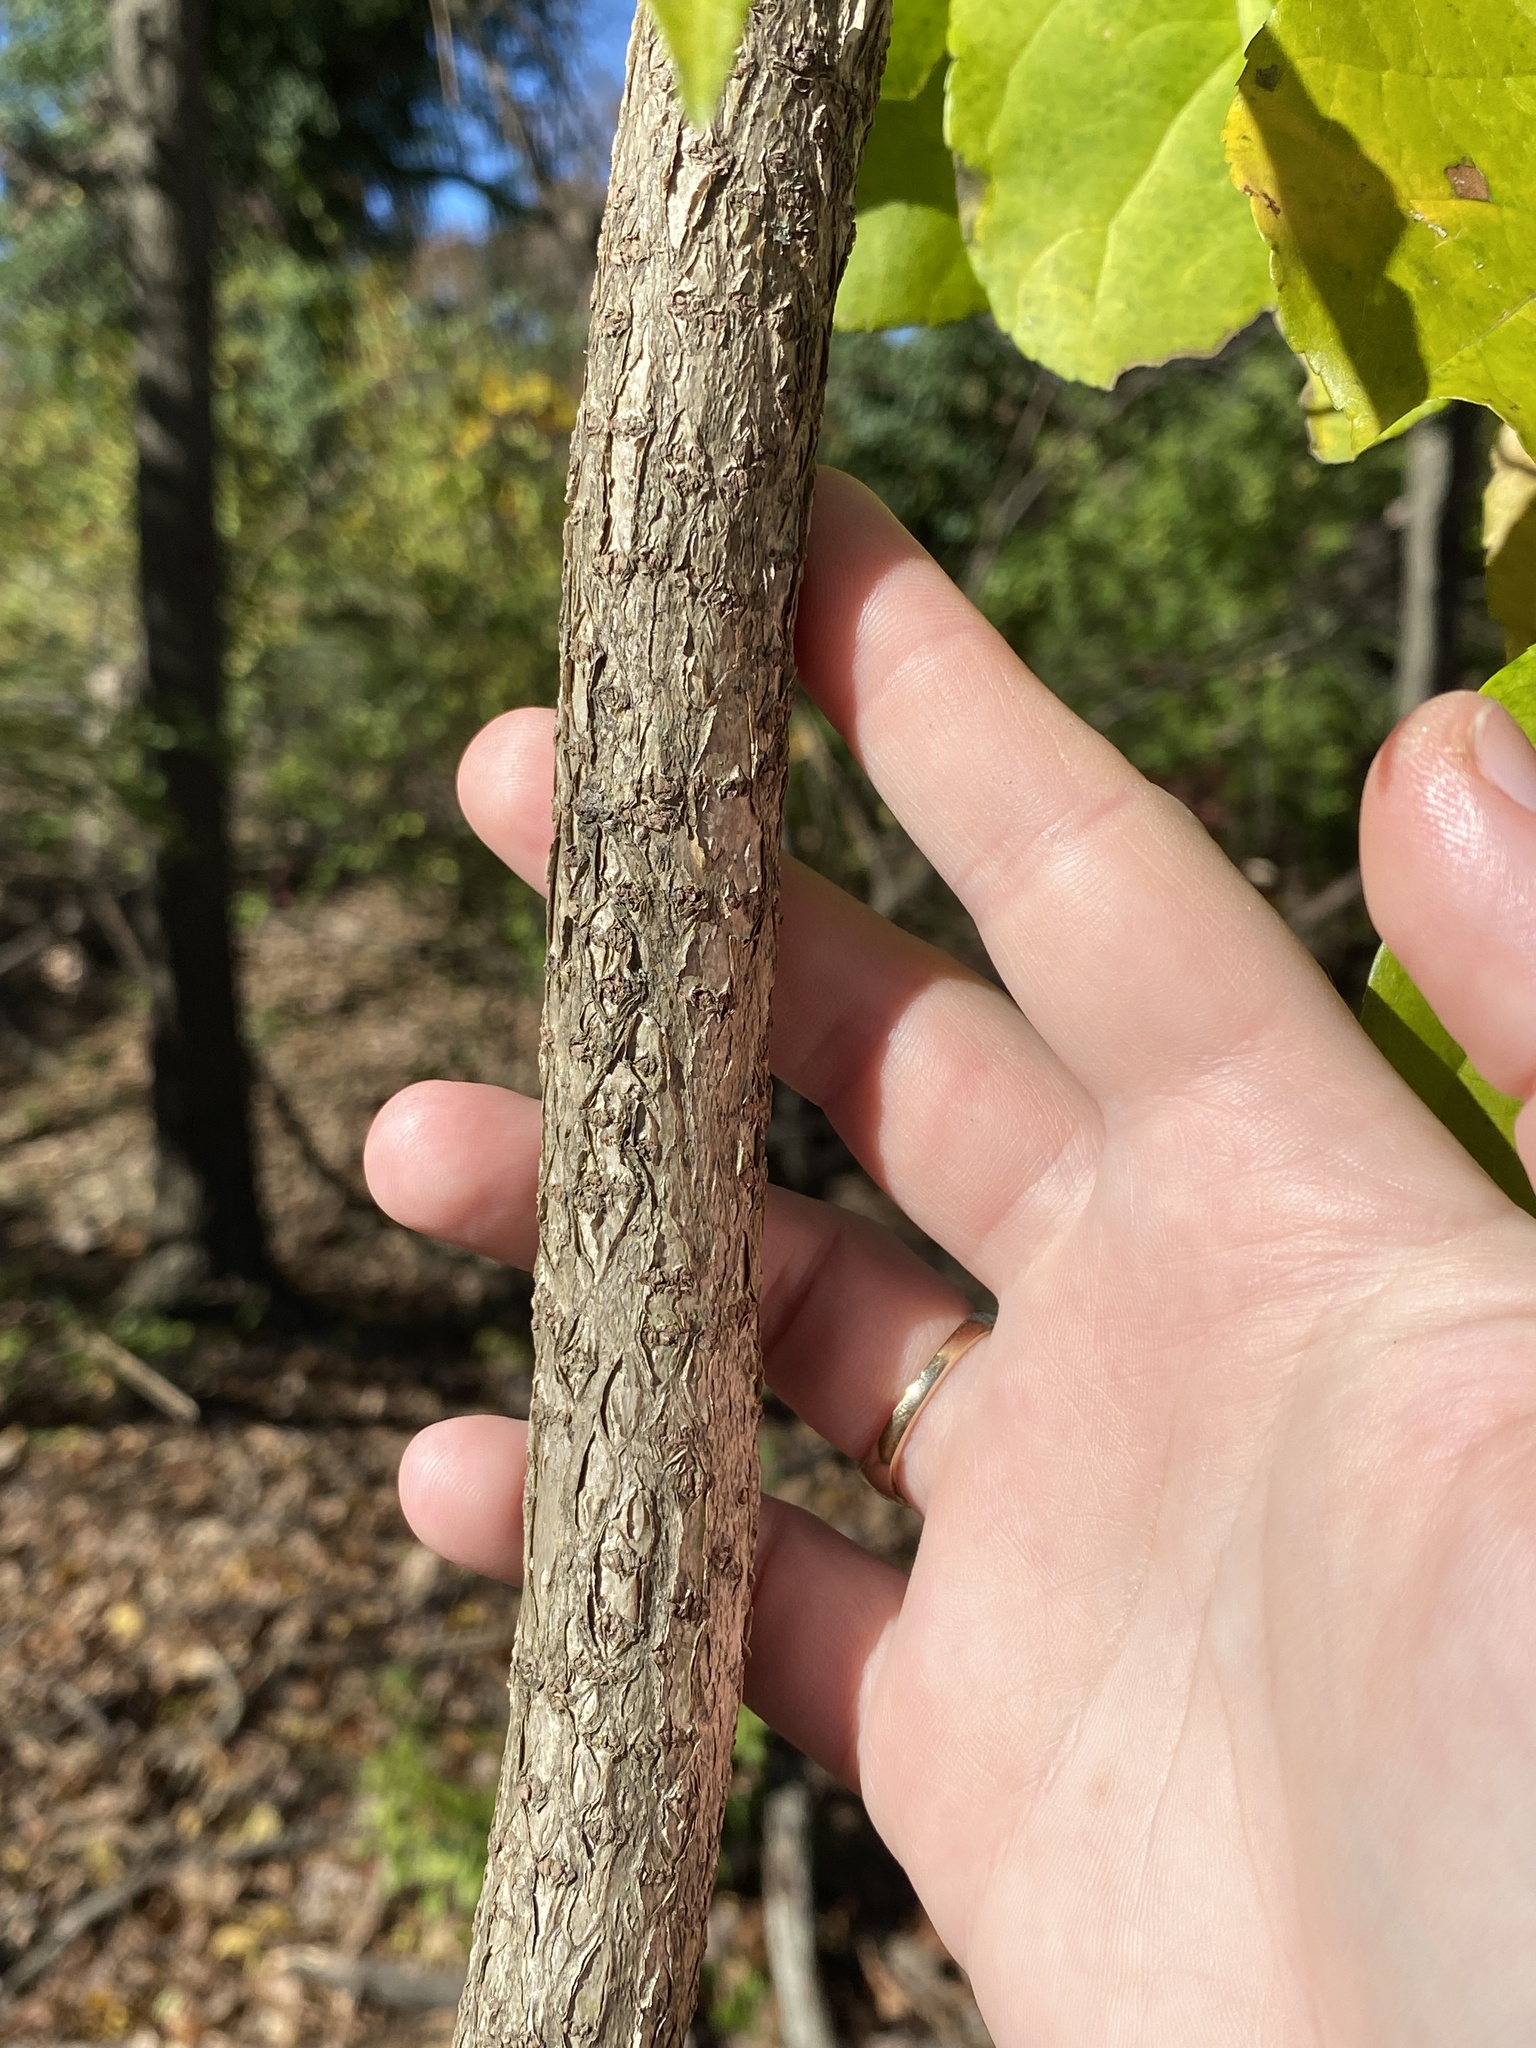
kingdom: Plantae
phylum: Tracheophyta
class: Magnoliopsida
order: Celastrales
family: Celastraceae
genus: Celastrus
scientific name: Celastrus orbiculatus
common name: Oriental bittersweet
